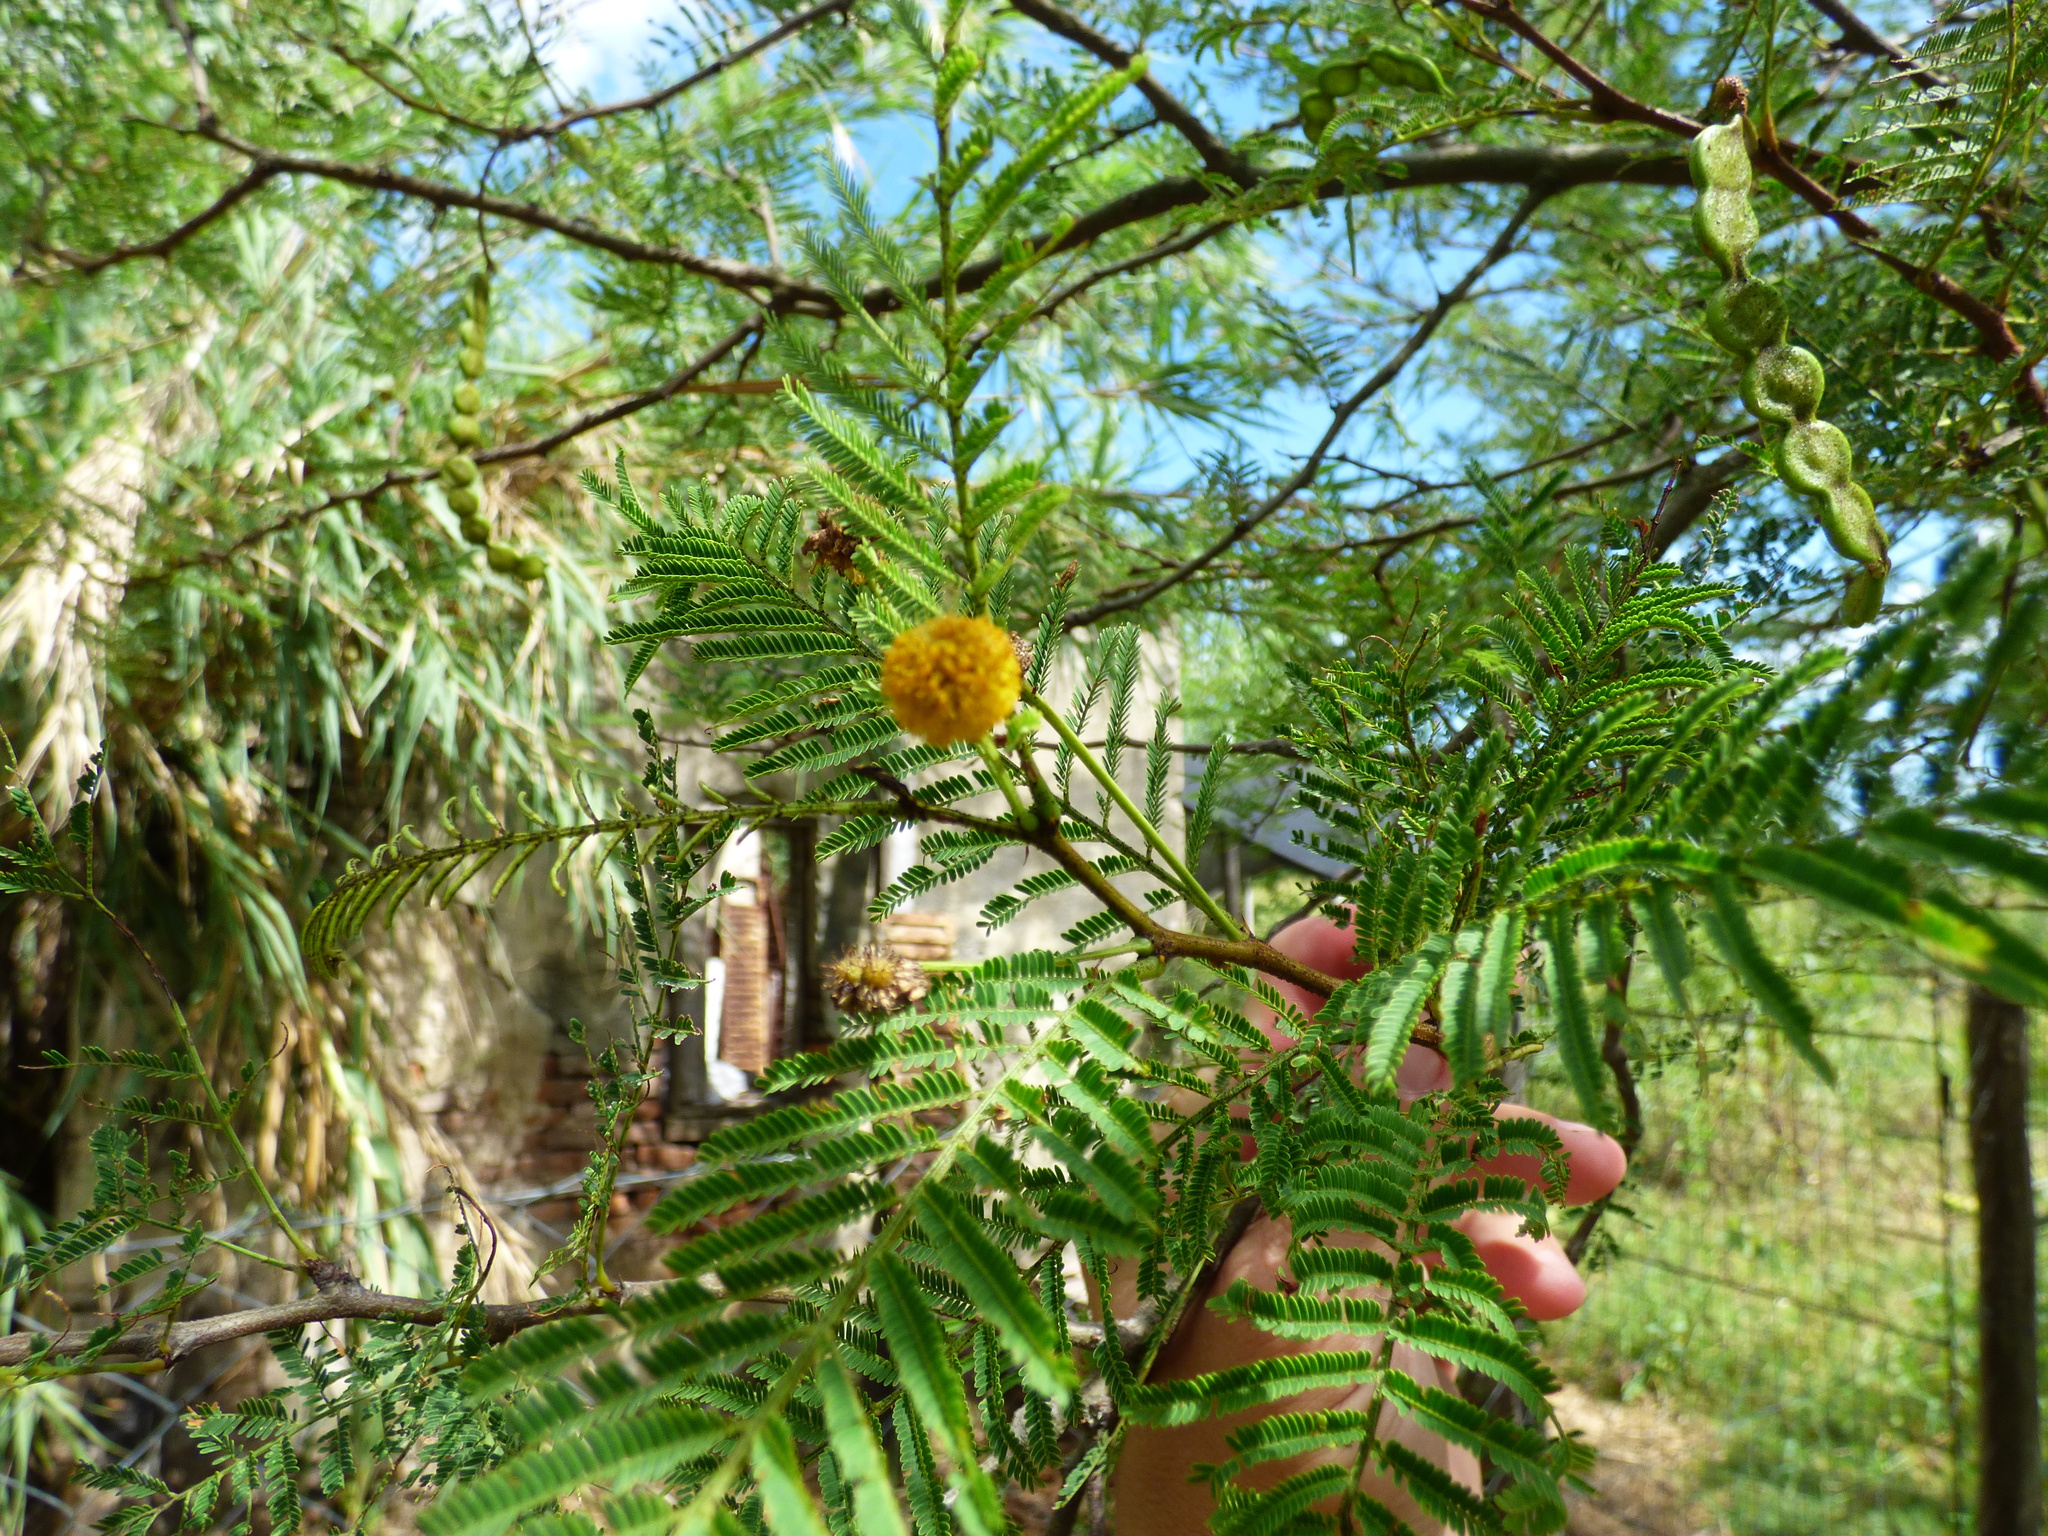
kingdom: Plantae
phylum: Tracheophyta
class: Magnoliopsida
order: Fabales
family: Fabaceae
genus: Vachellia
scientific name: Vachellia aroma
